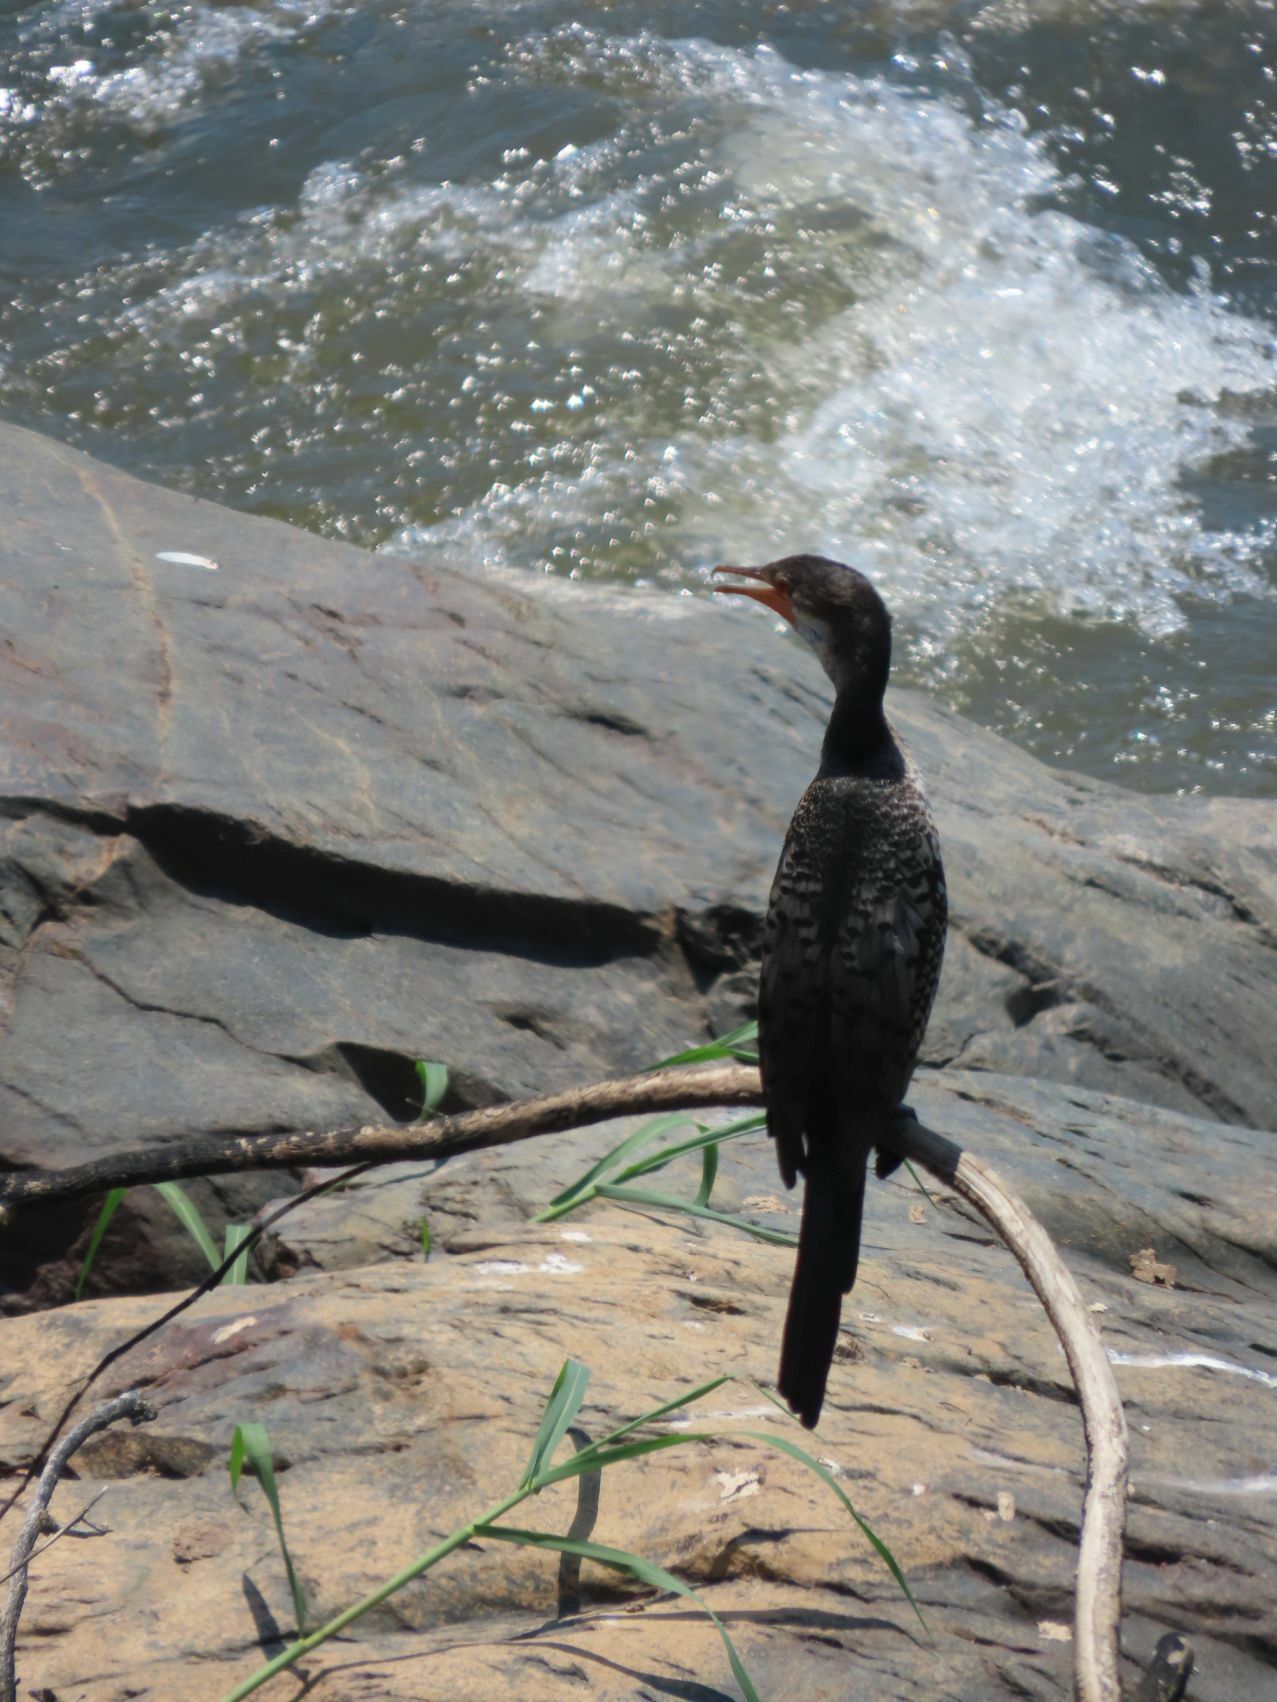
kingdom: Animalia
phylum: Chordata
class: Aves
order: Suliformes
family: Phalacrocoracidae
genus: Microcarbo
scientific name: Microcarbo africanus
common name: Long-tailed cormorant
